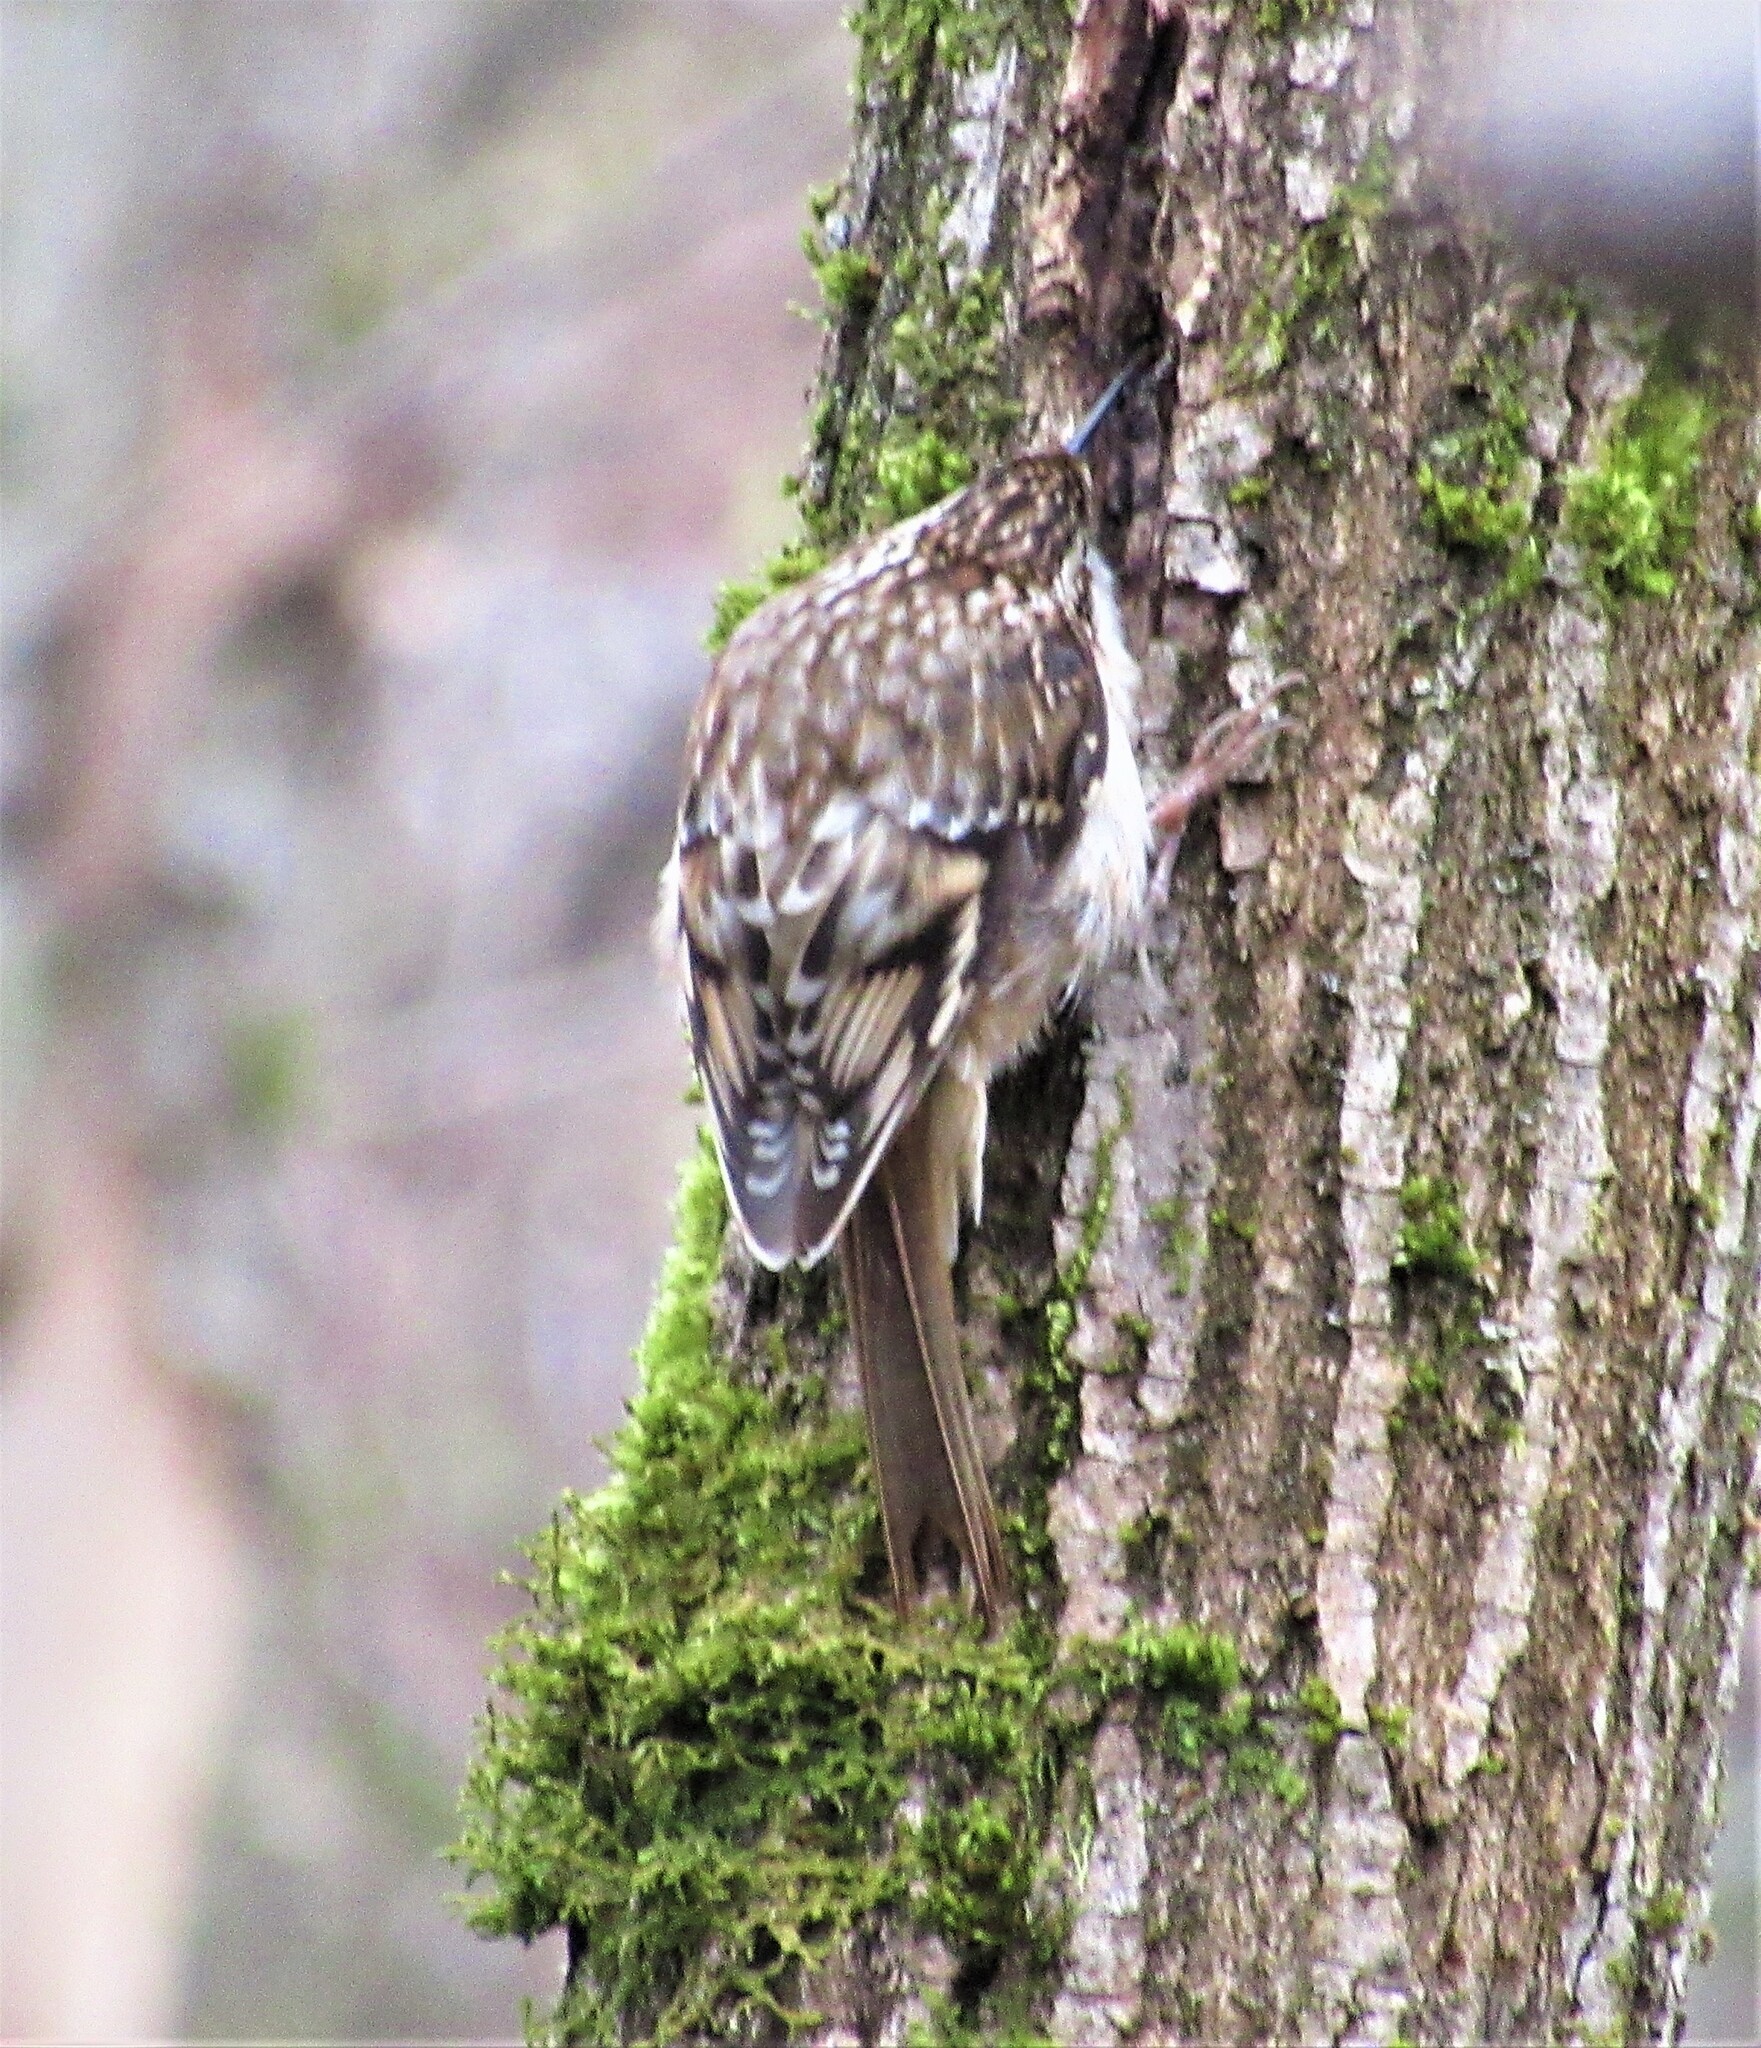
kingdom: Animalia
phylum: Chordata
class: Aves
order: Passeriformes
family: Certhiidae
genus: Certhia
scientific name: Certhia americana
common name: Brown creeper
